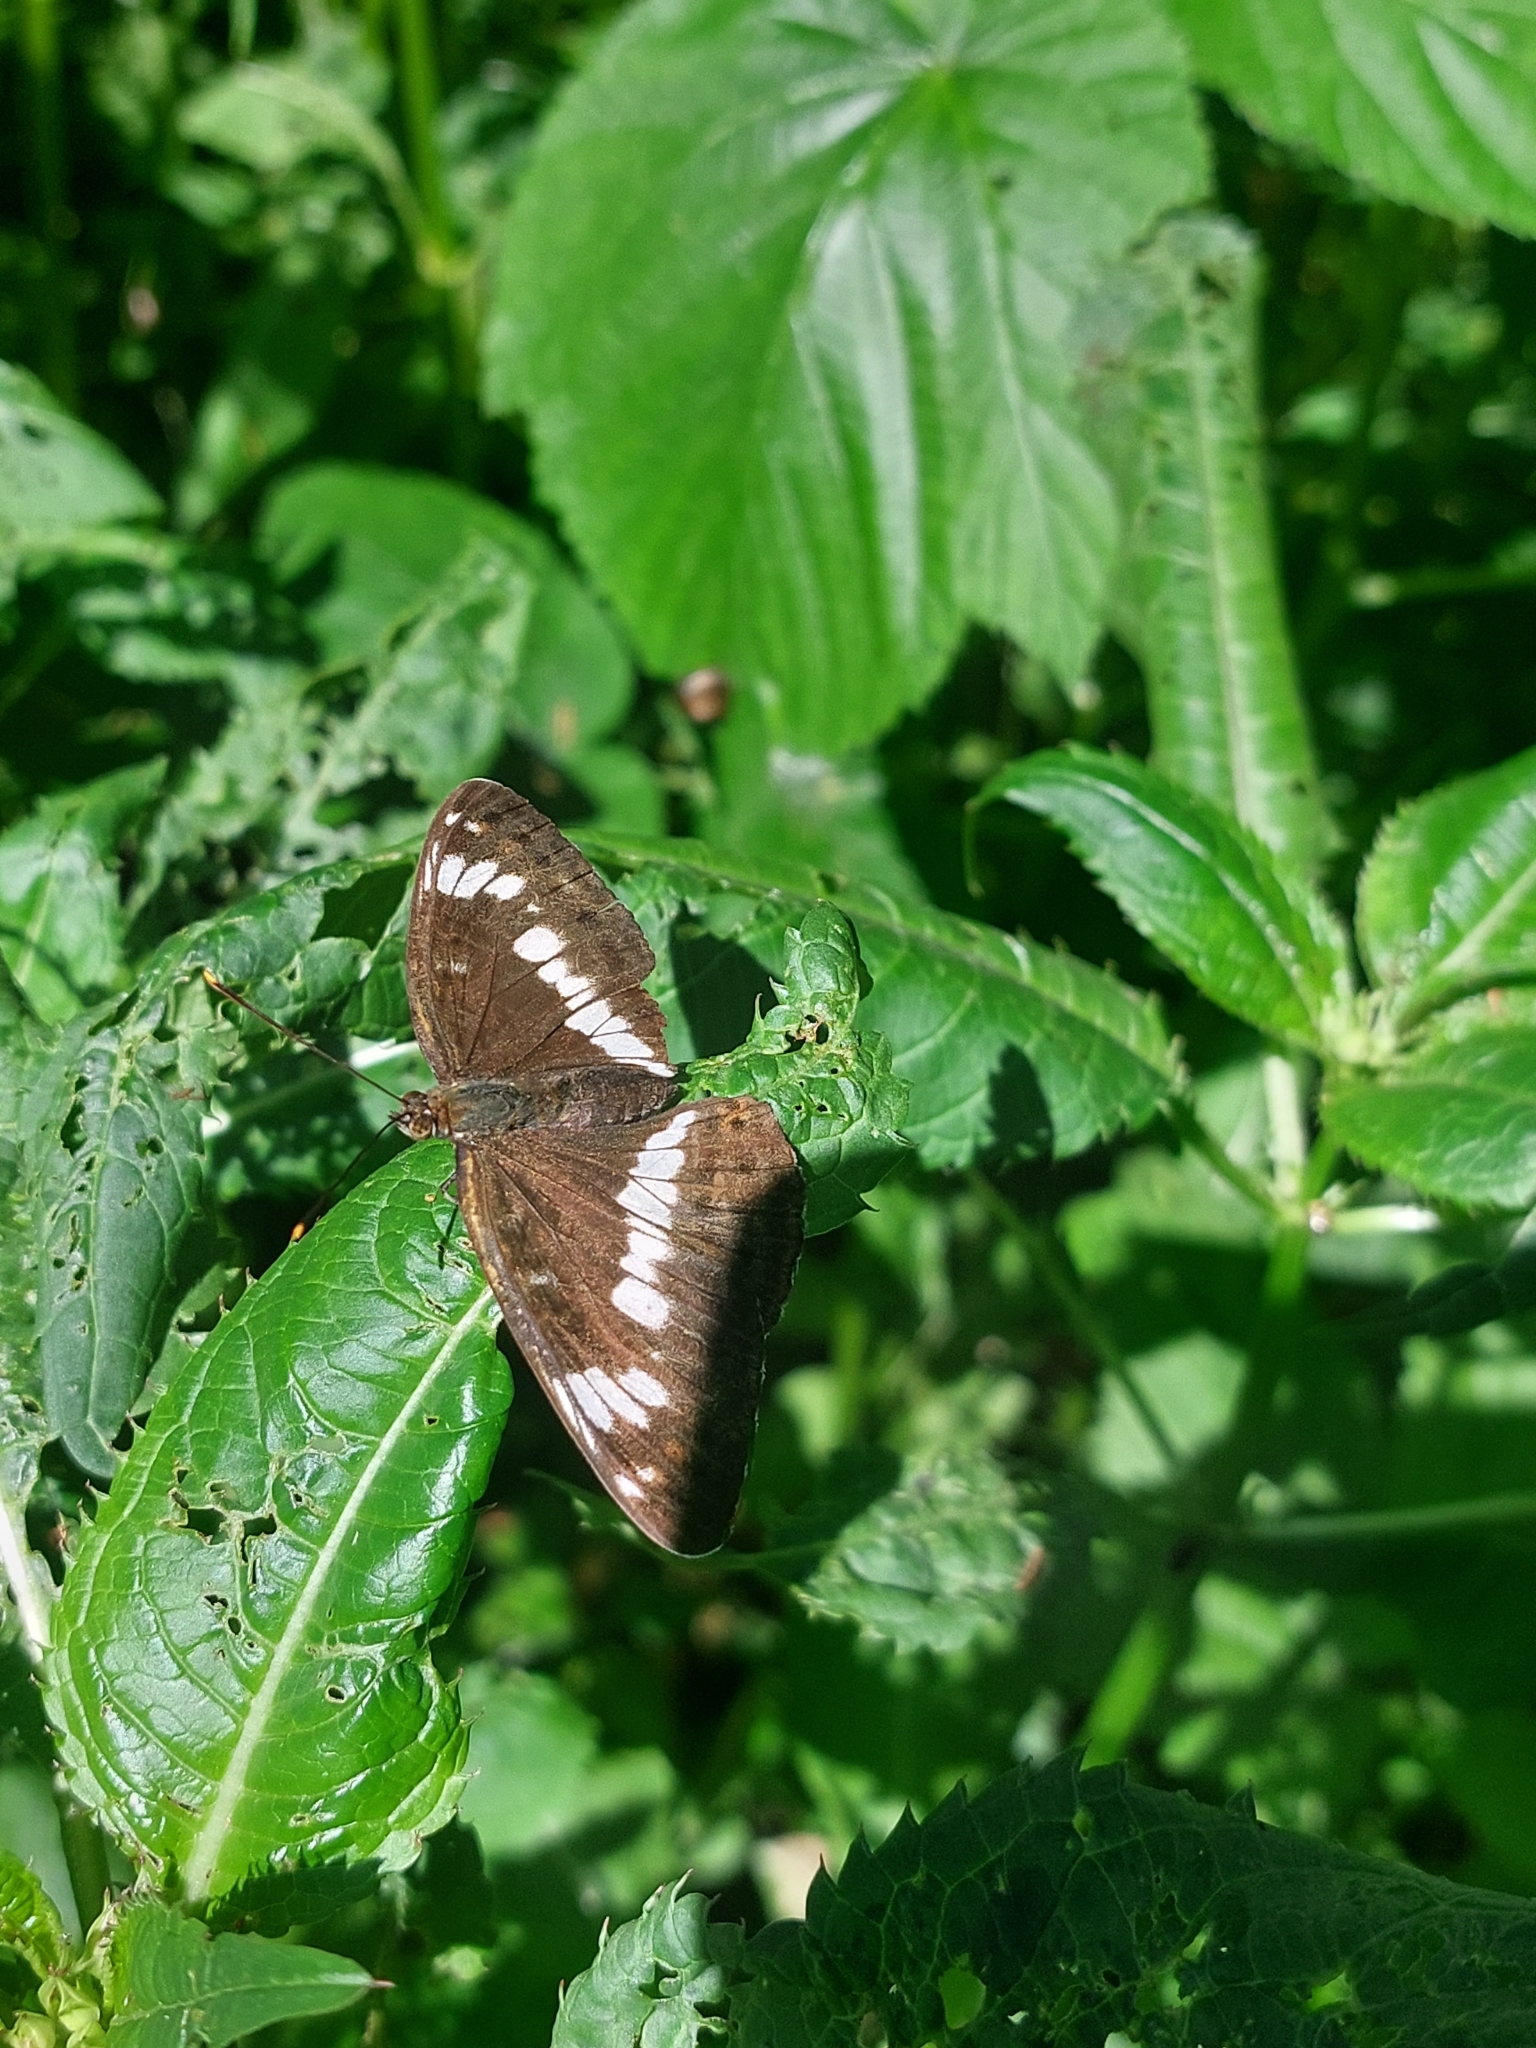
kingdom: Animalia
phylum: Arthropoda
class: Insecta
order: Lepidoptera
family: Nymphalidae
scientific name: Nymphalidae
